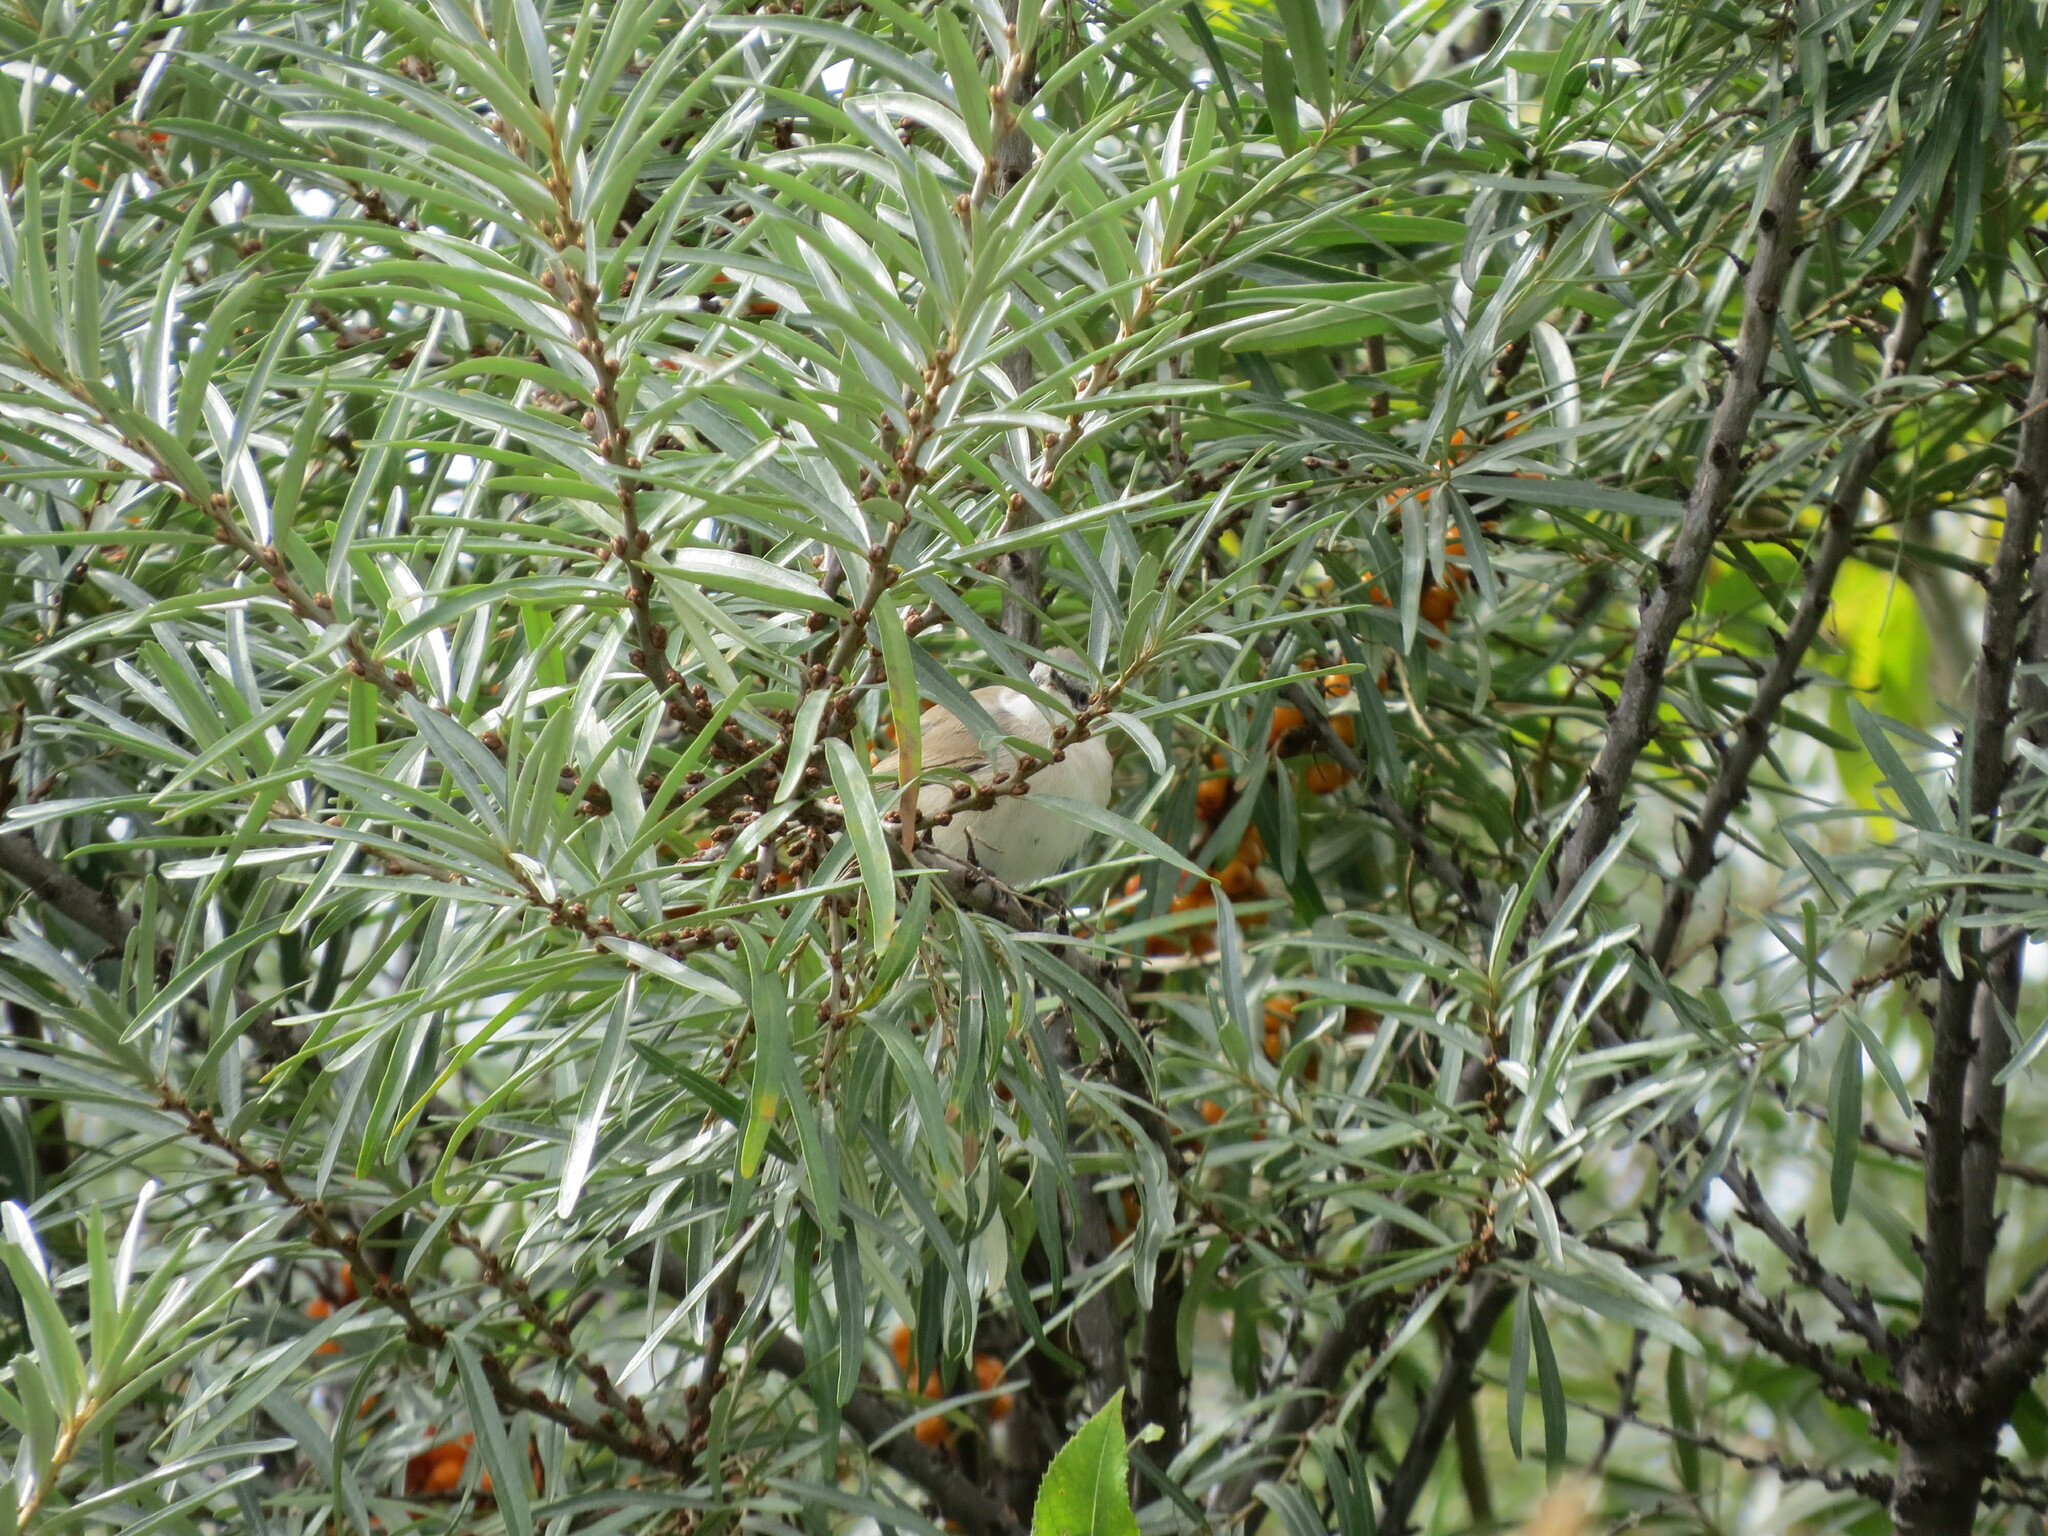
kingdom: Animalia
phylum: Chordata
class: Aves
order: Passeriformes
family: Sylviidae
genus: Sylvia
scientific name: Sylvia curruca
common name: Lesser whitethroat
